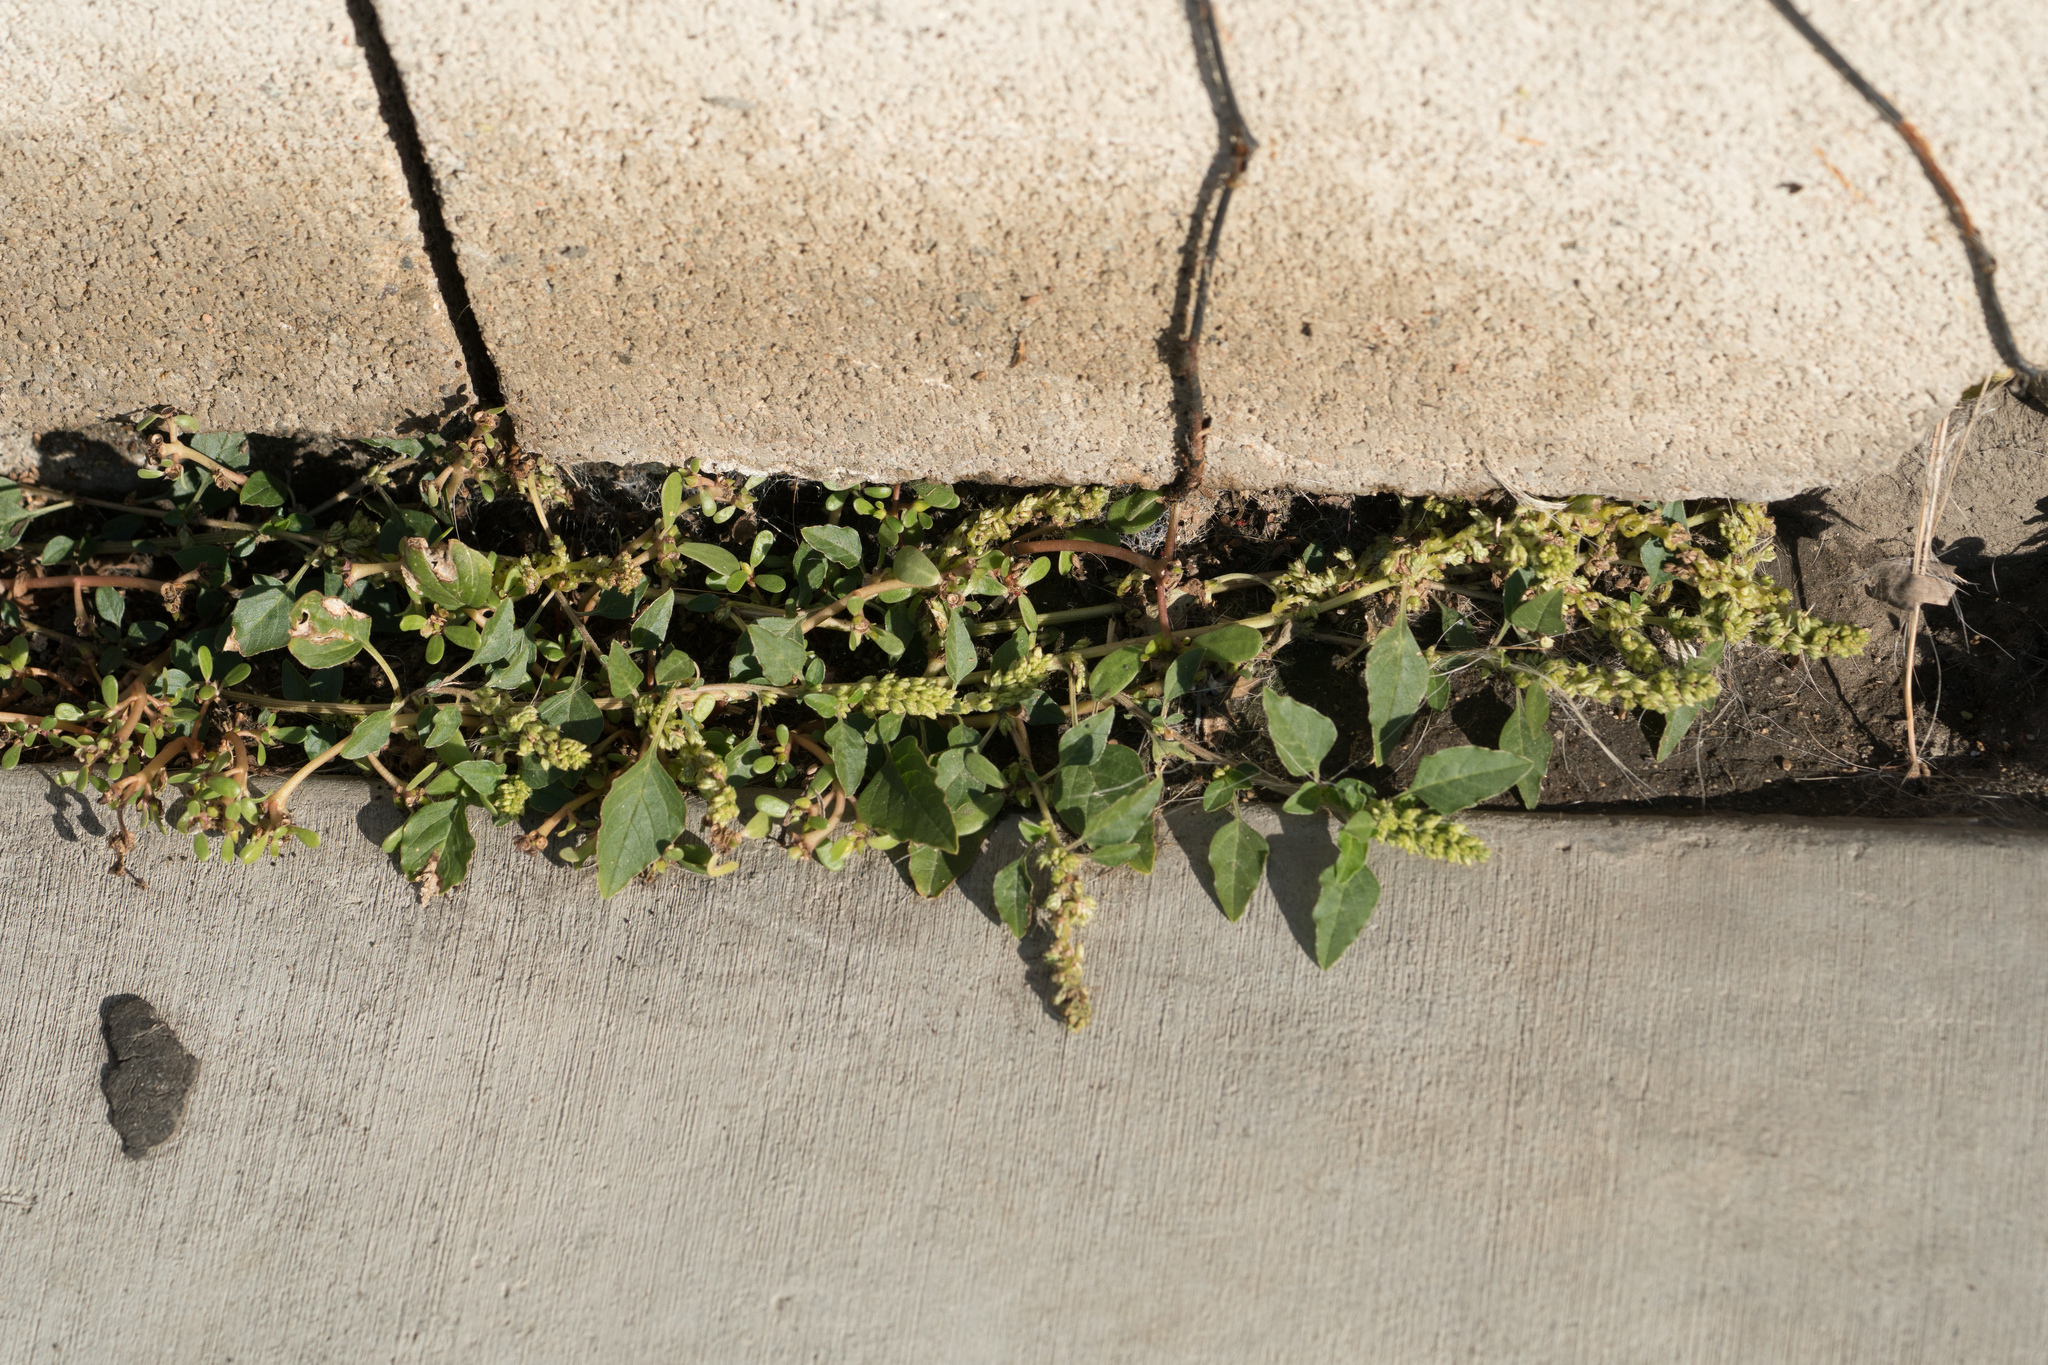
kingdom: Plantae
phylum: Tracheophyta
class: Magnoliopsida
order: Caryophyllales
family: Amaranthaceae
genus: Amaranthus
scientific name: Amaranthus deflexus
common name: Perennial pigweed
